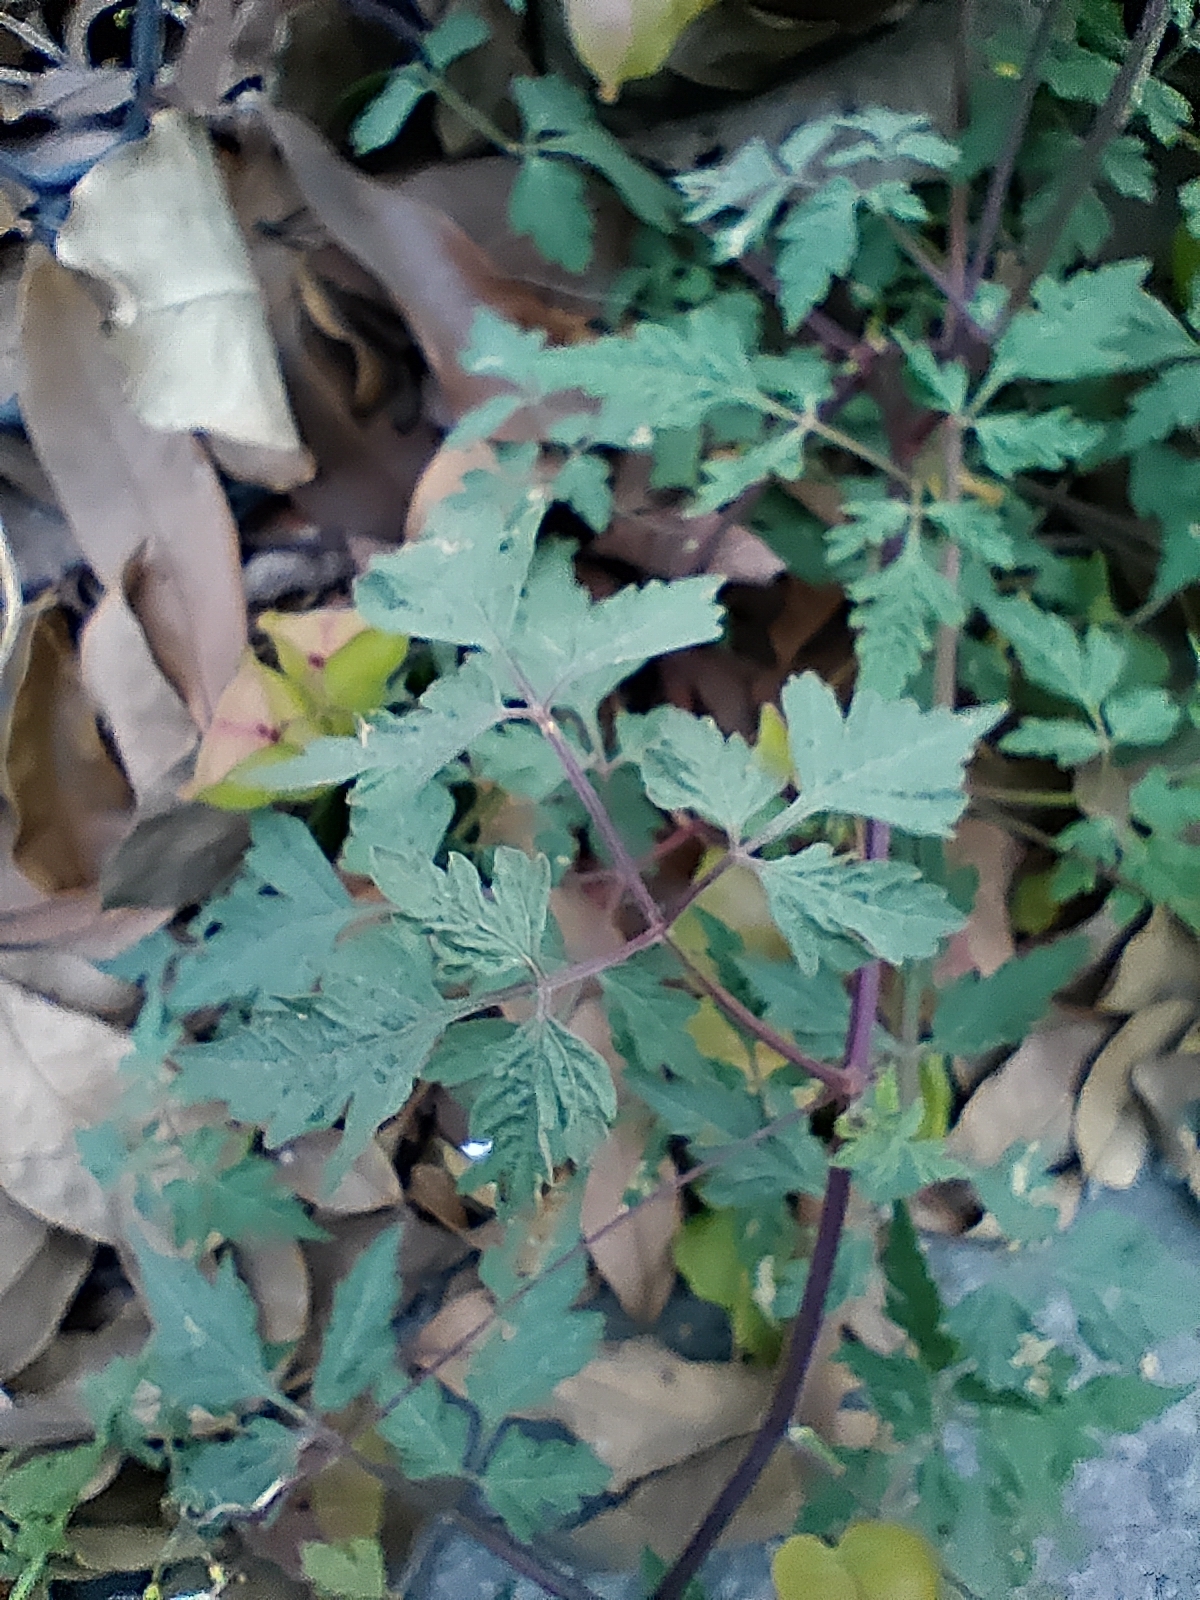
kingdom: Plantae
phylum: Tracheophyta
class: Magnoliopsida
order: Sapindales
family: Sapindaceae
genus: Cardiospermum
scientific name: Cardiospermum halicacabum
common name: Balloon vine
